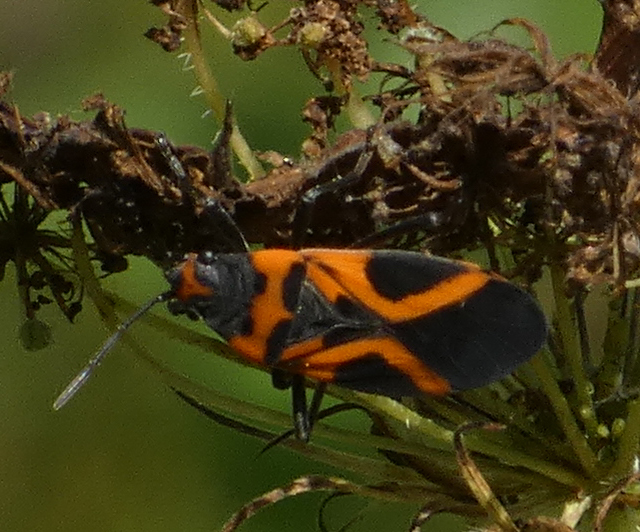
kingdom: Animalia
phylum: Arthropoda
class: Insecta
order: Hemiptera
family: Lygaeidae
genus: Lygaeus
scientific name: Lygaeus turcicus
